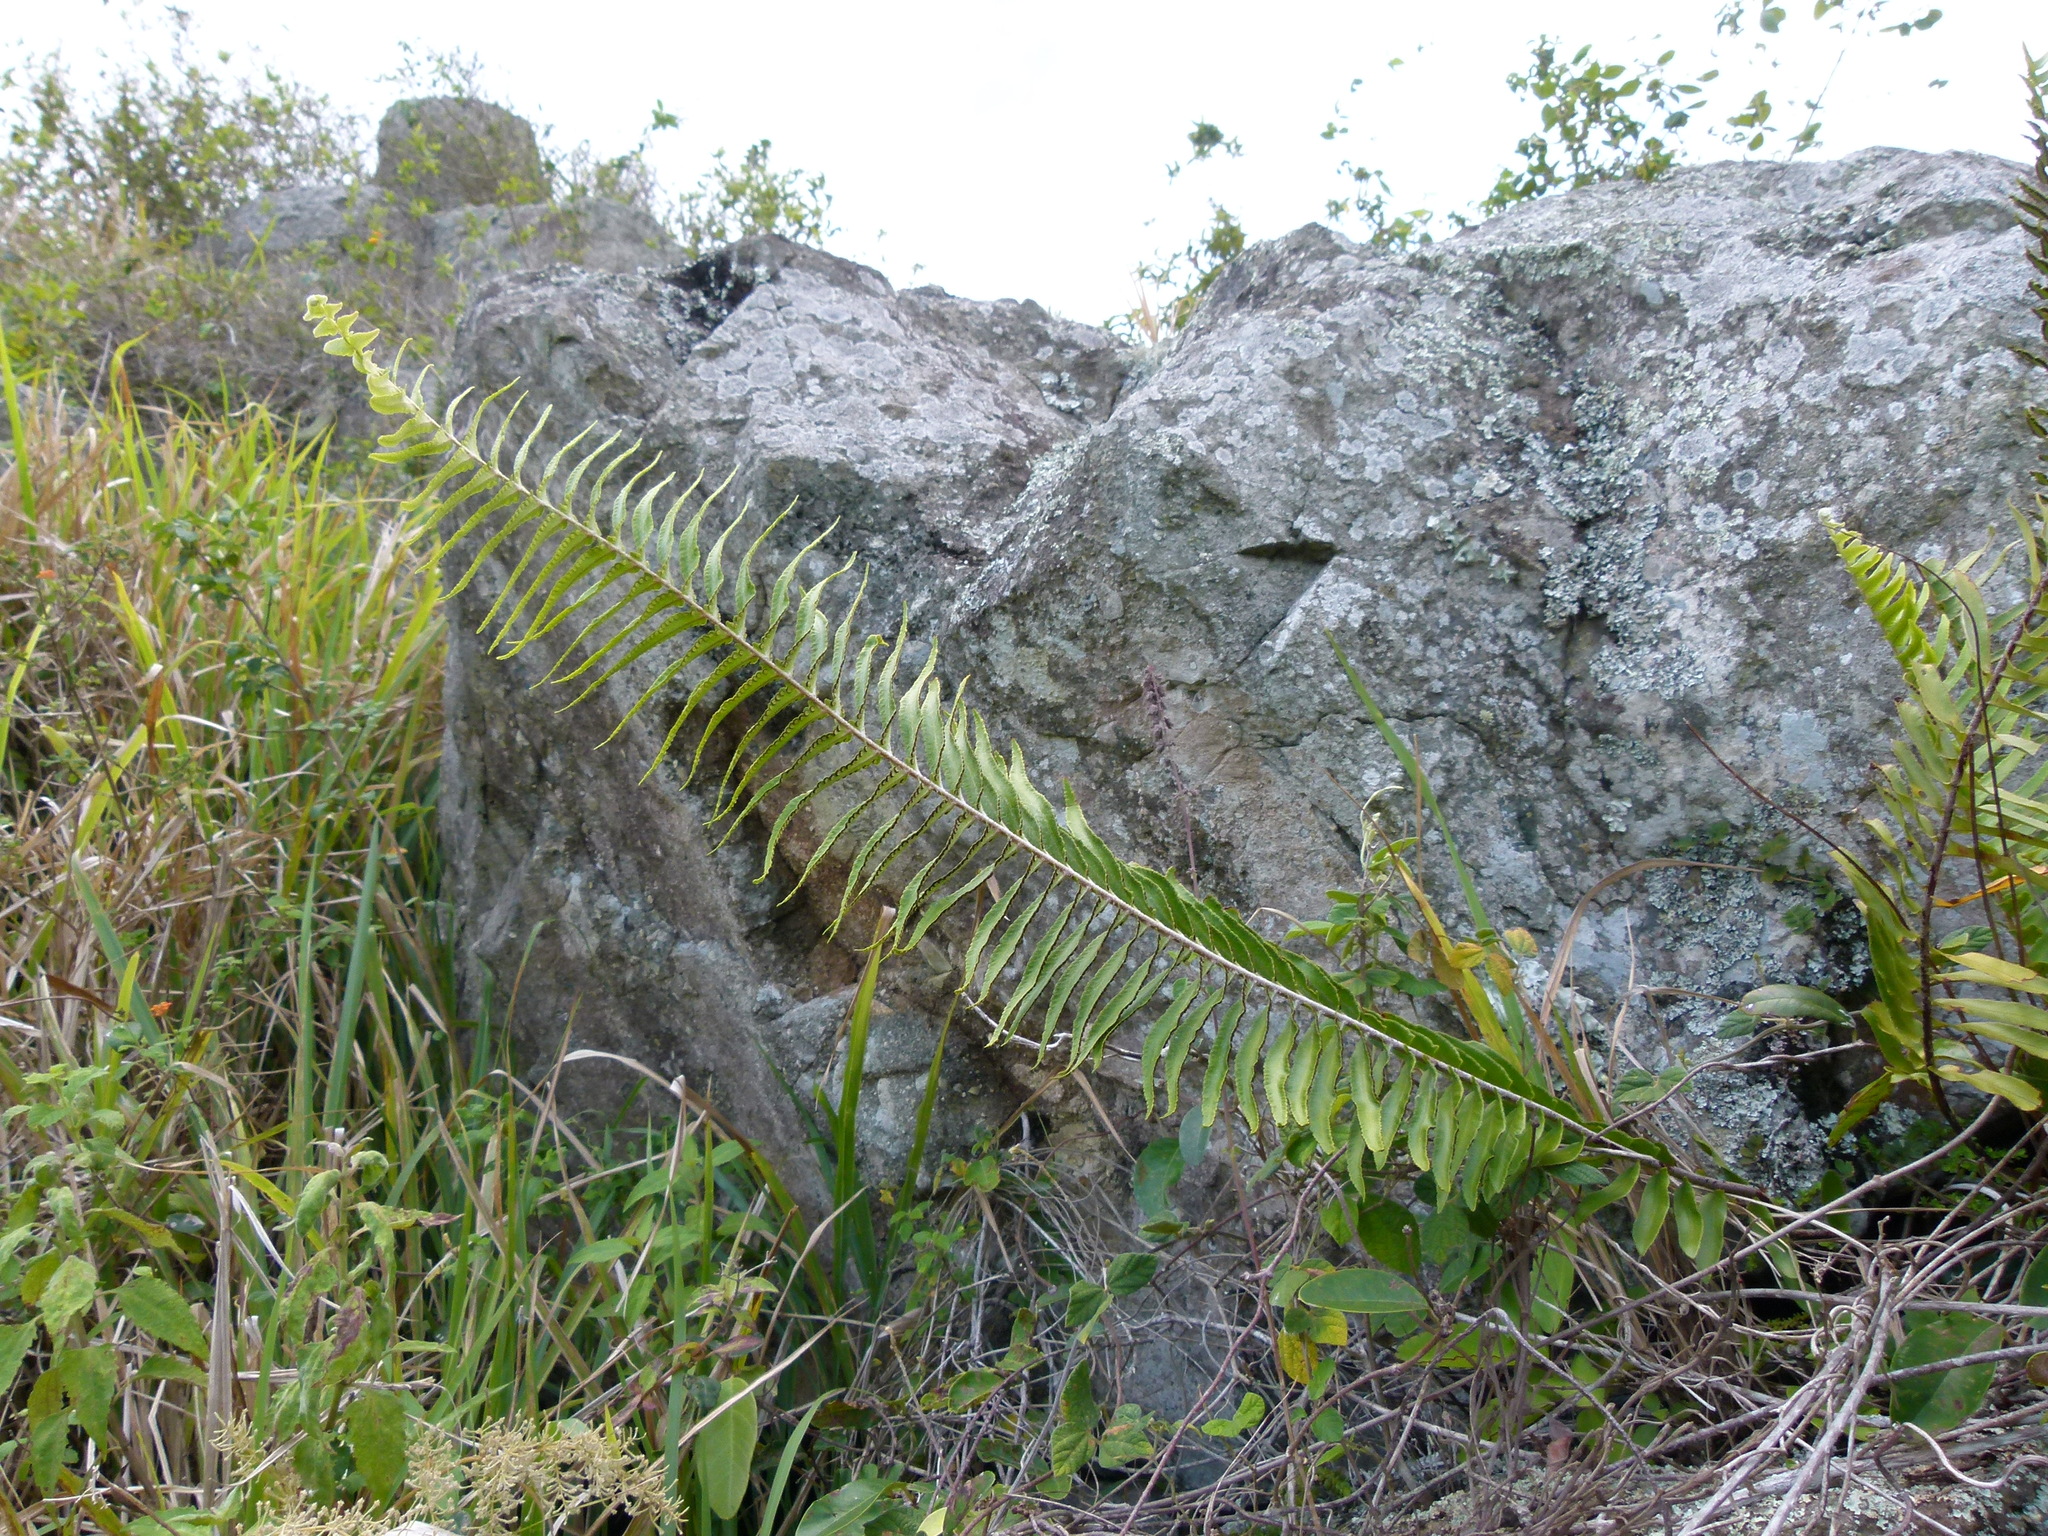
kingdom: Plantae
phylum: Tracheophyta
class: Magnoliopsida
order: Malvales
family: Malvaceae
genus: Triumfetta
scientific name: Triumfetta semitriloba
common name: Sacramento burbark
